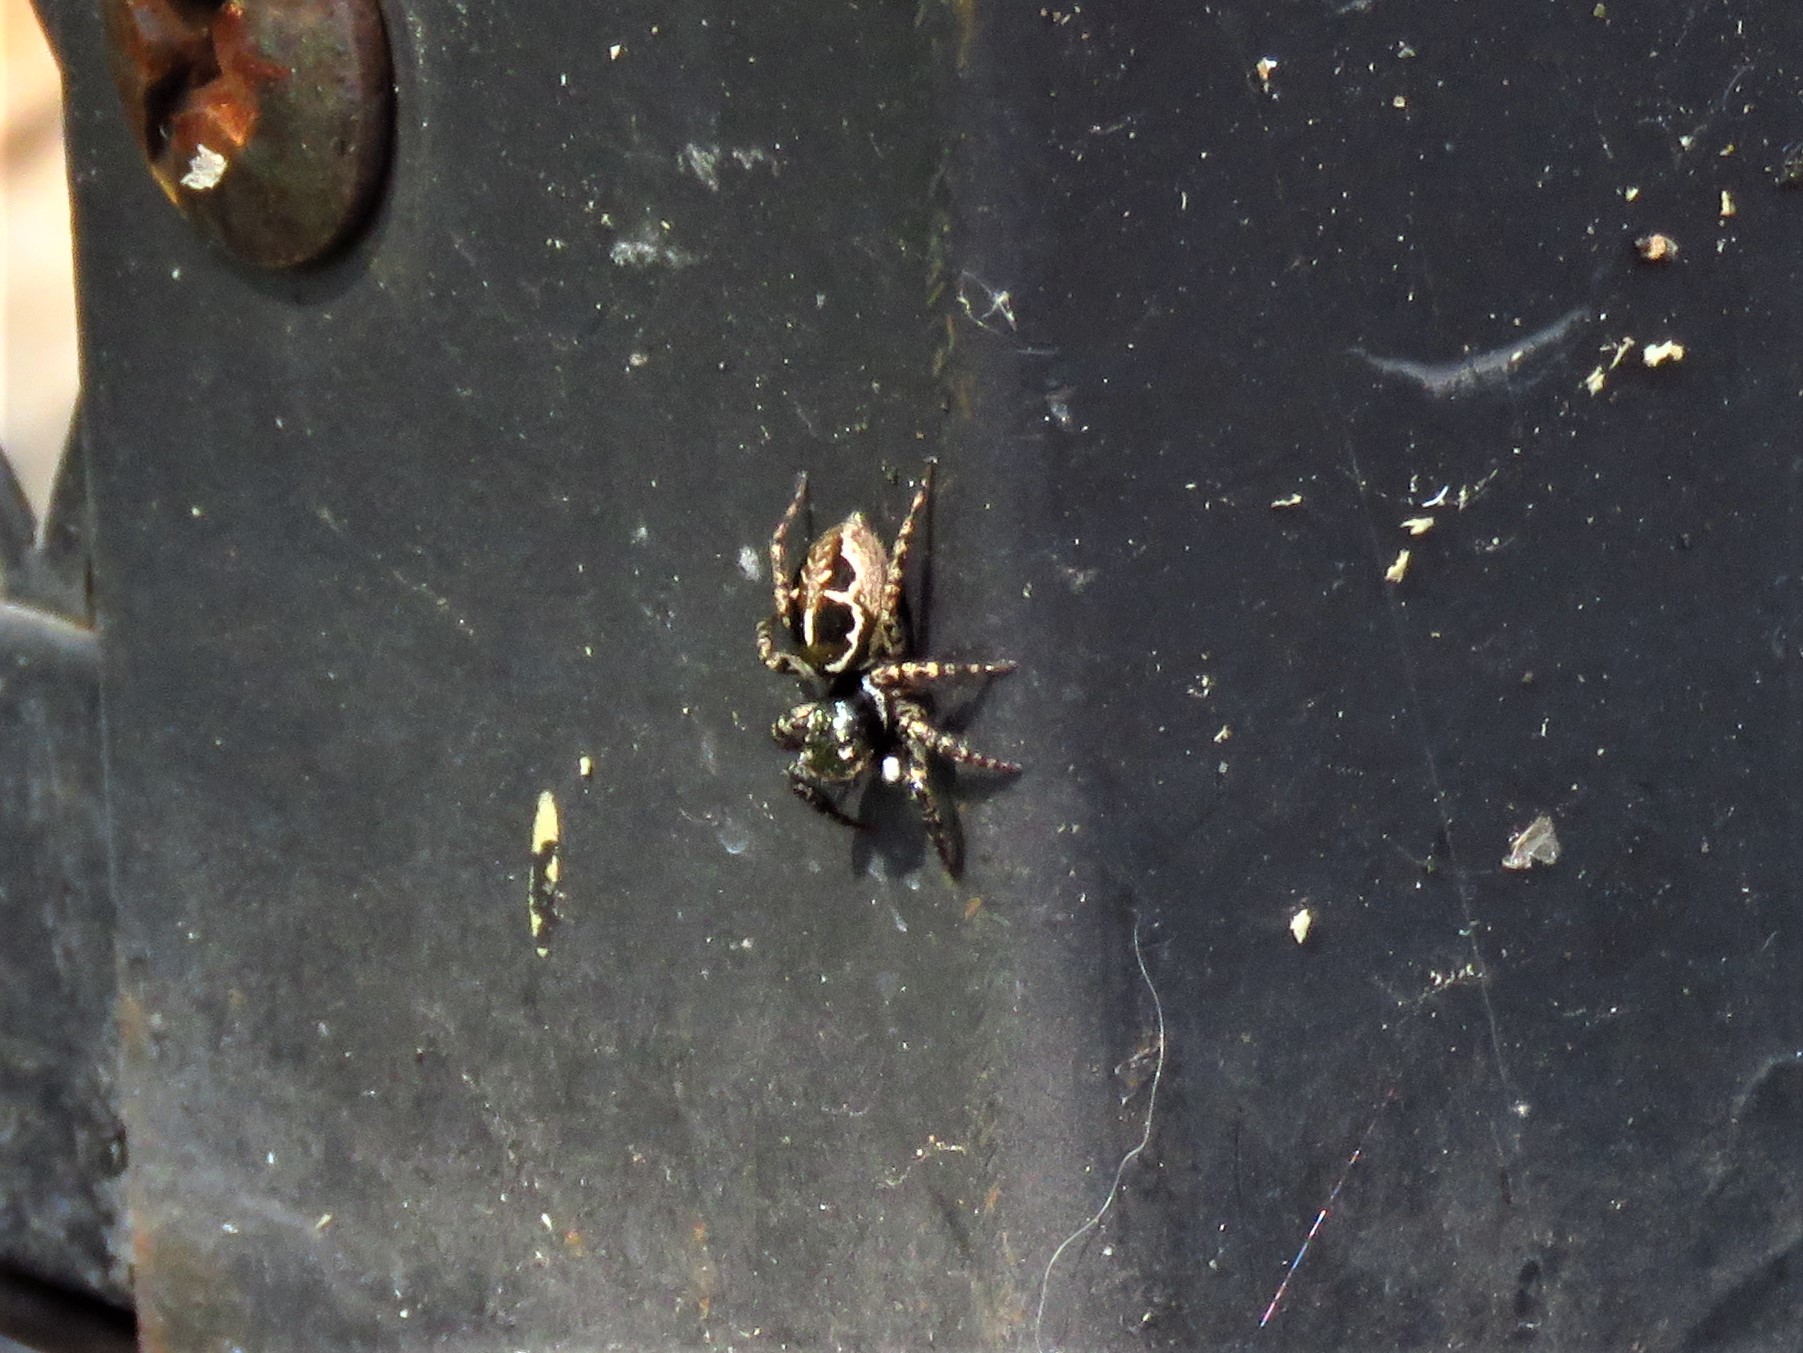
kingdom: Animalia
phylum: Arthropoda
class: Arachnida
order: Araneae
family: Salticidae
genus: Anasaitis
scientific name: Anasaitis canosa
